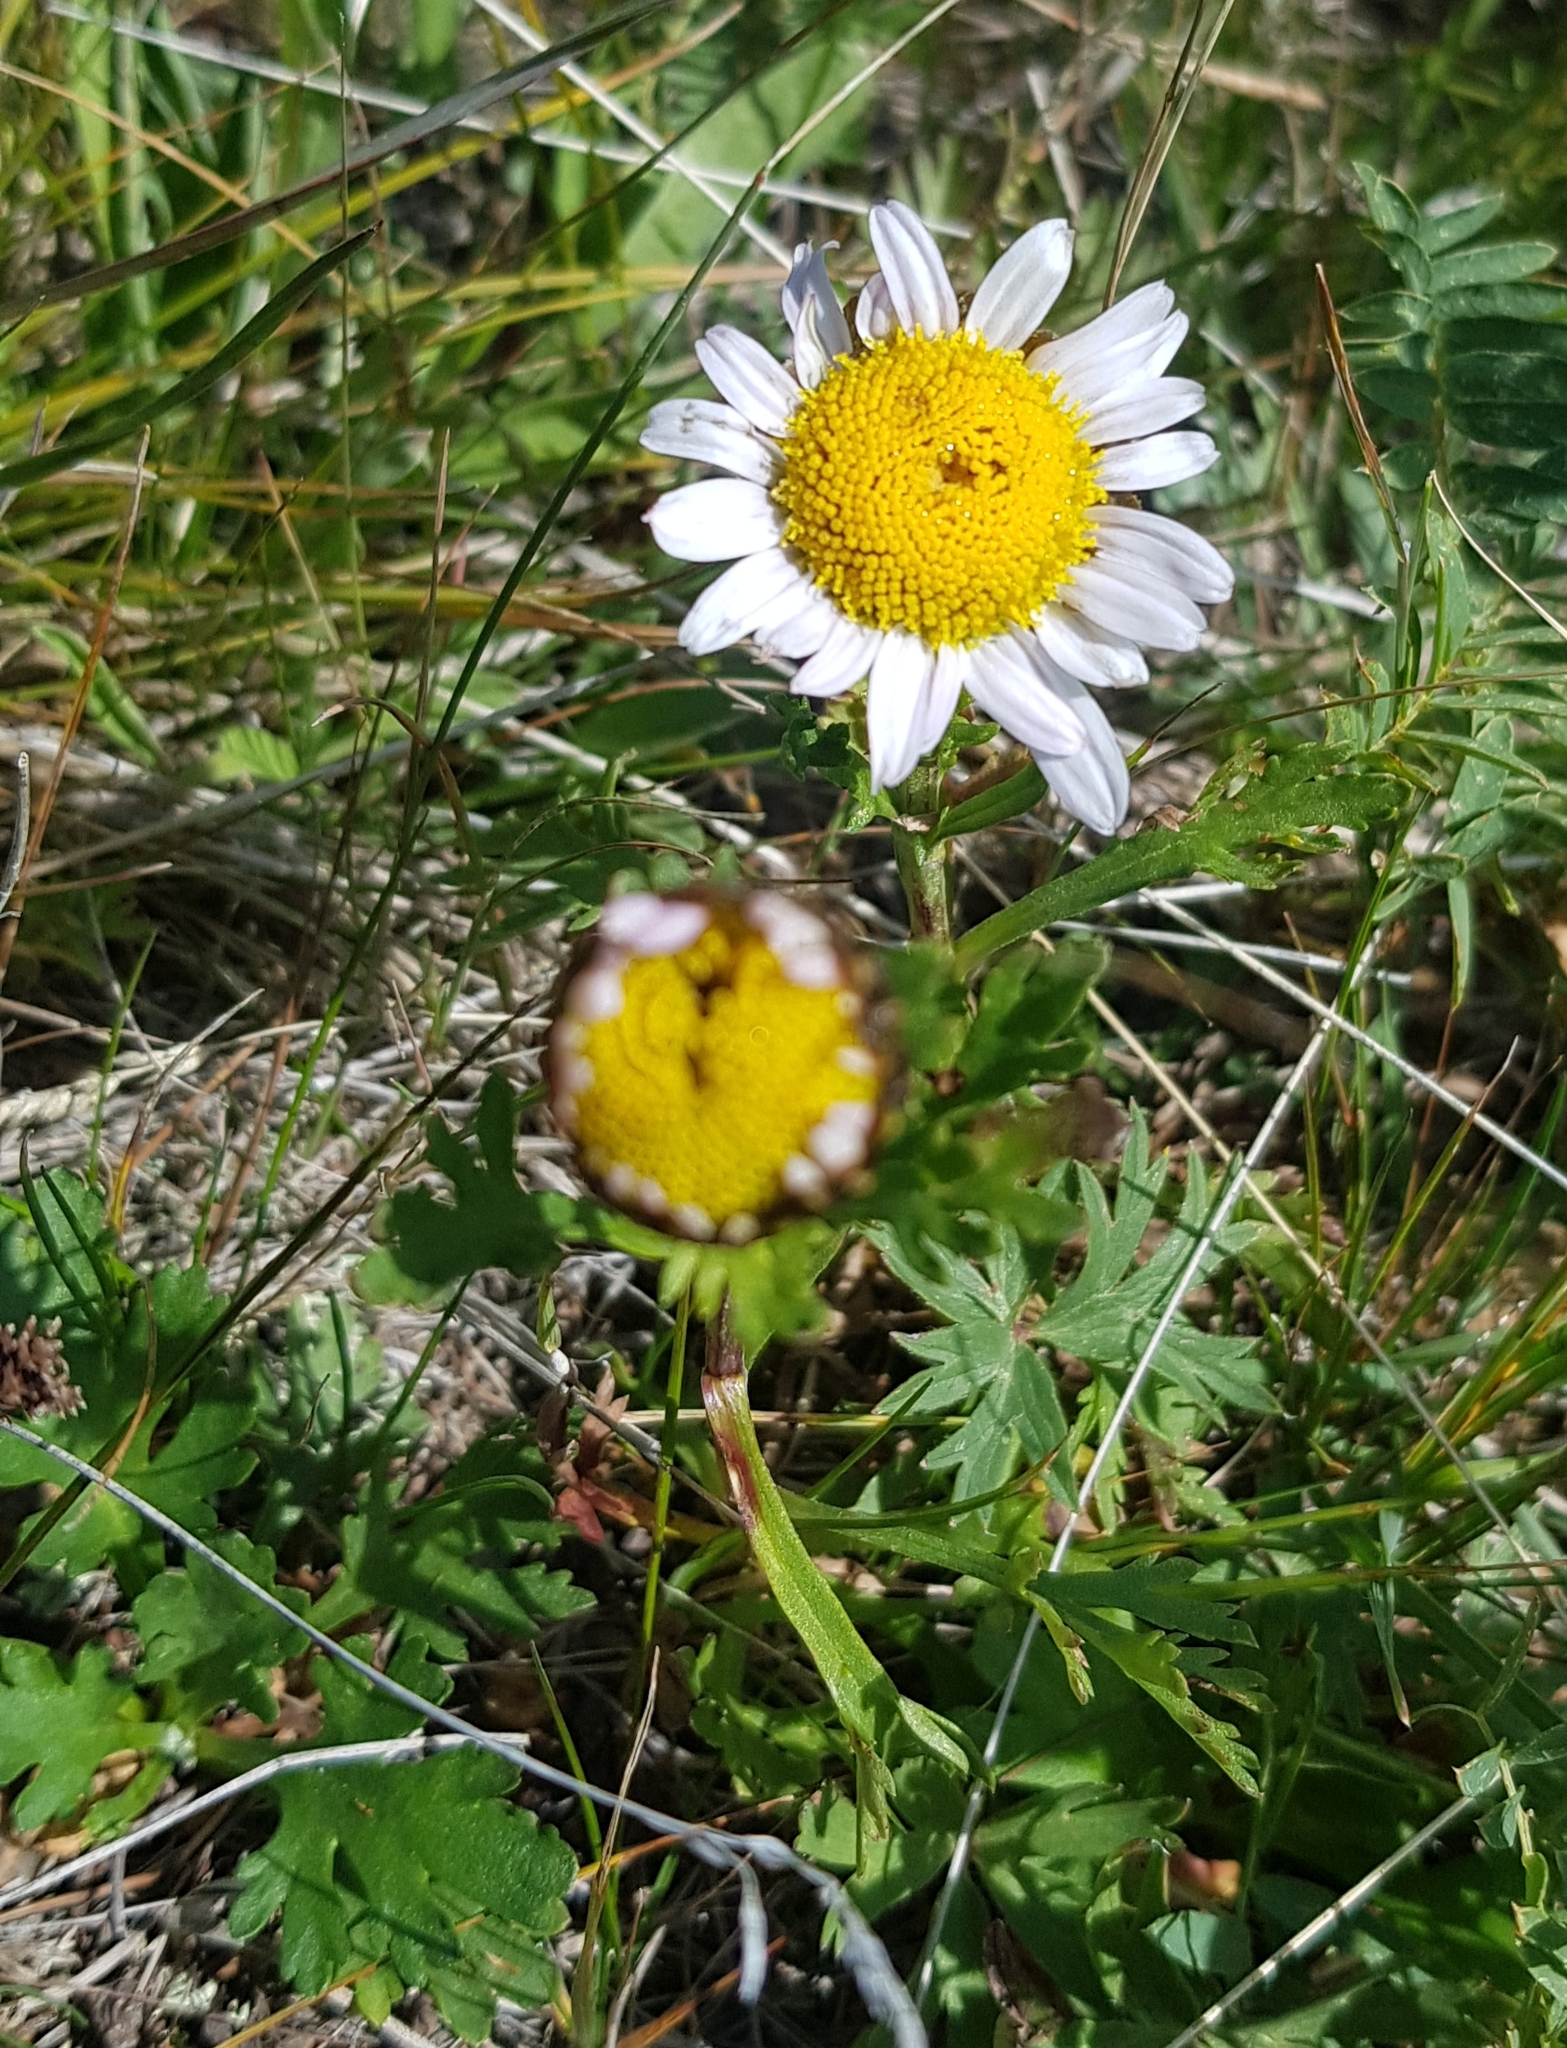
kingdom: Plantae
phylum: Tracheophyta
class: Magnoliopsida
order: Asterales
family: Asteraceae
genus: Chrysanthemum
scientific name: Chrysanthemum zawadzkii
